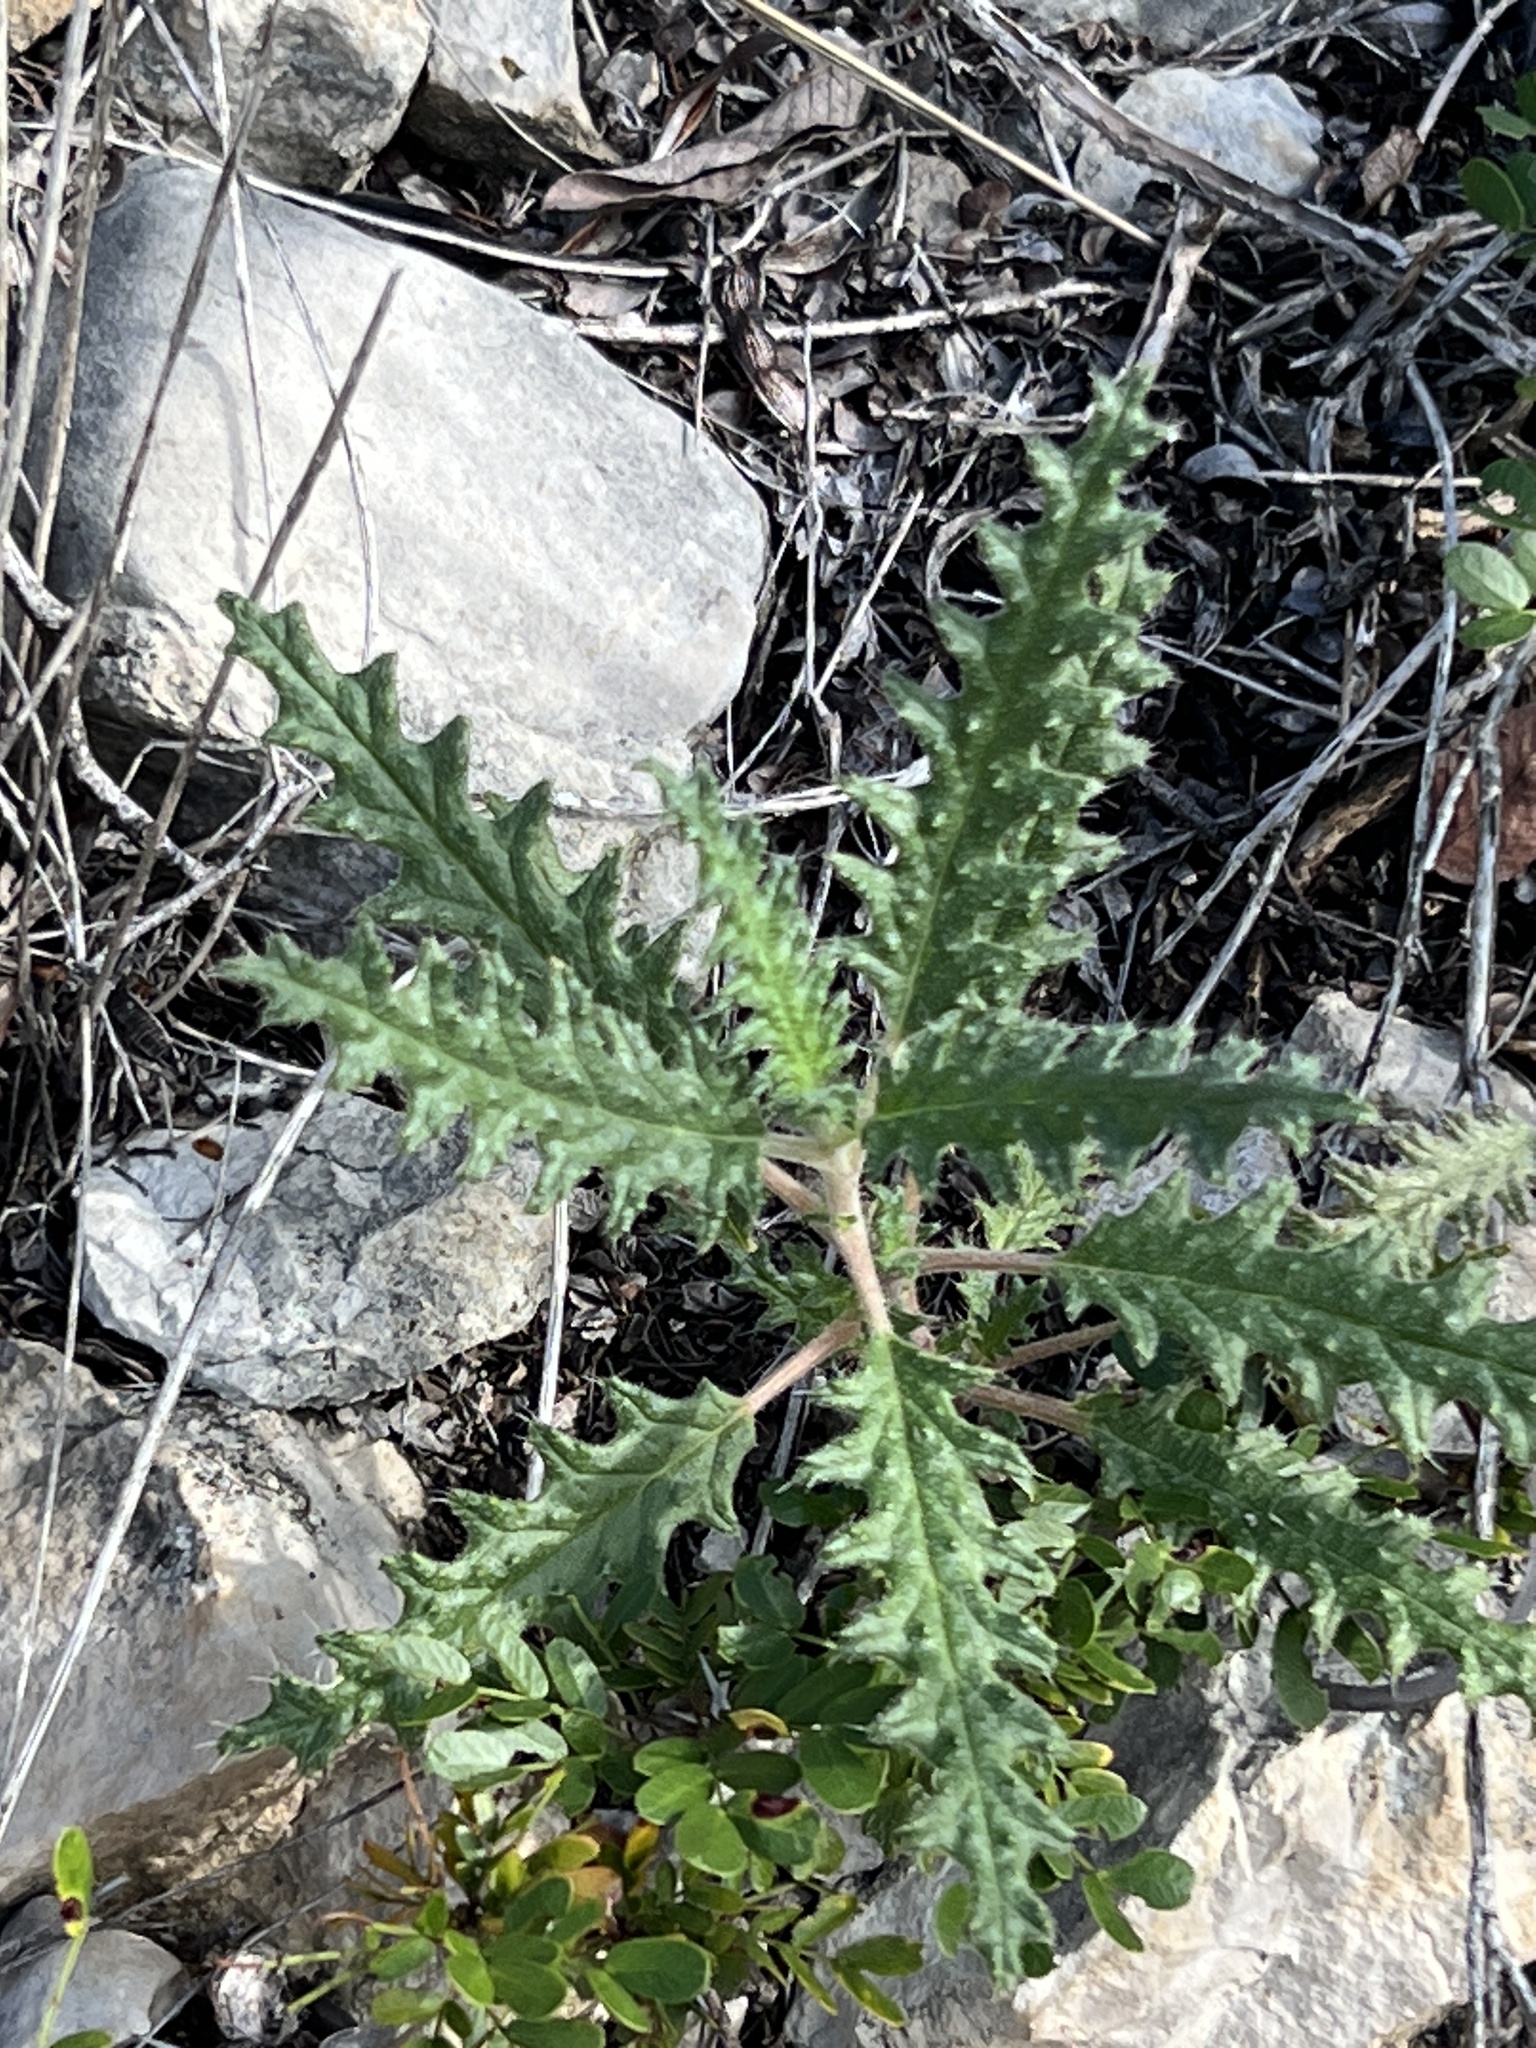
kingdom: Plantae
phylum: Tracheophyta
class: Magnoliopsida
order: Cornales
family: Loasaceae
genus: Cevallia
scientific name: Cevallia sinuata
